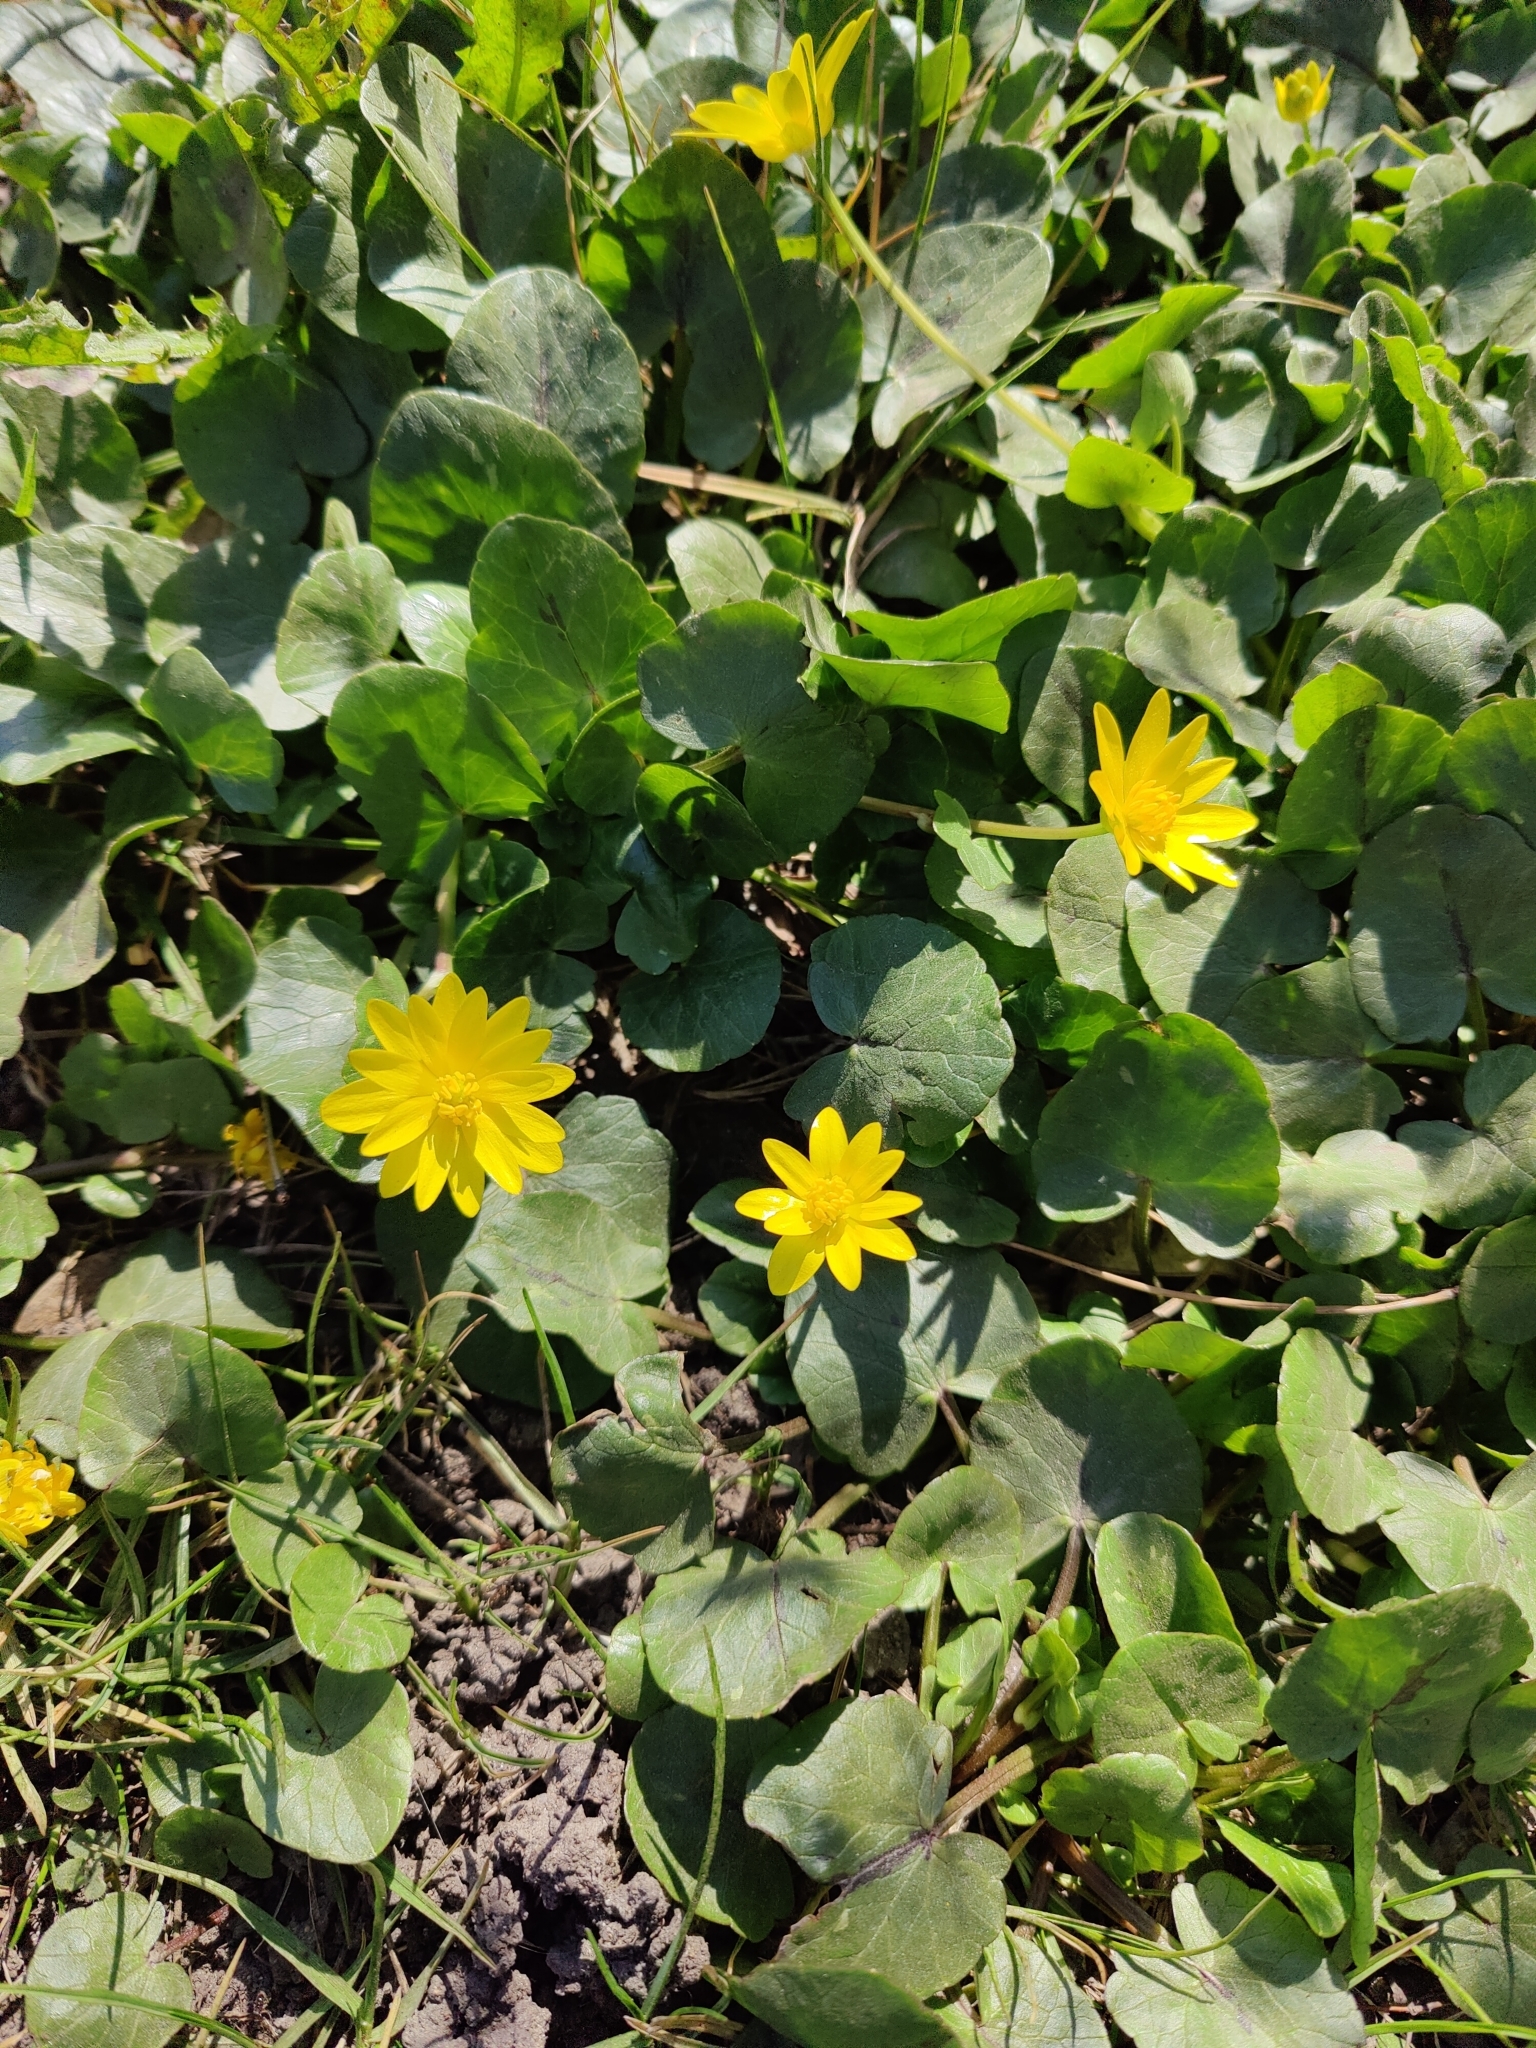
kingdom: Plantae
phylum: Tracheophyta
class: Magnoliopsida
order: Ranunculales
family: Ranunculaceae
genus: Ficaria
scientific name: Ficaria verna
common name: Lesser celandine
